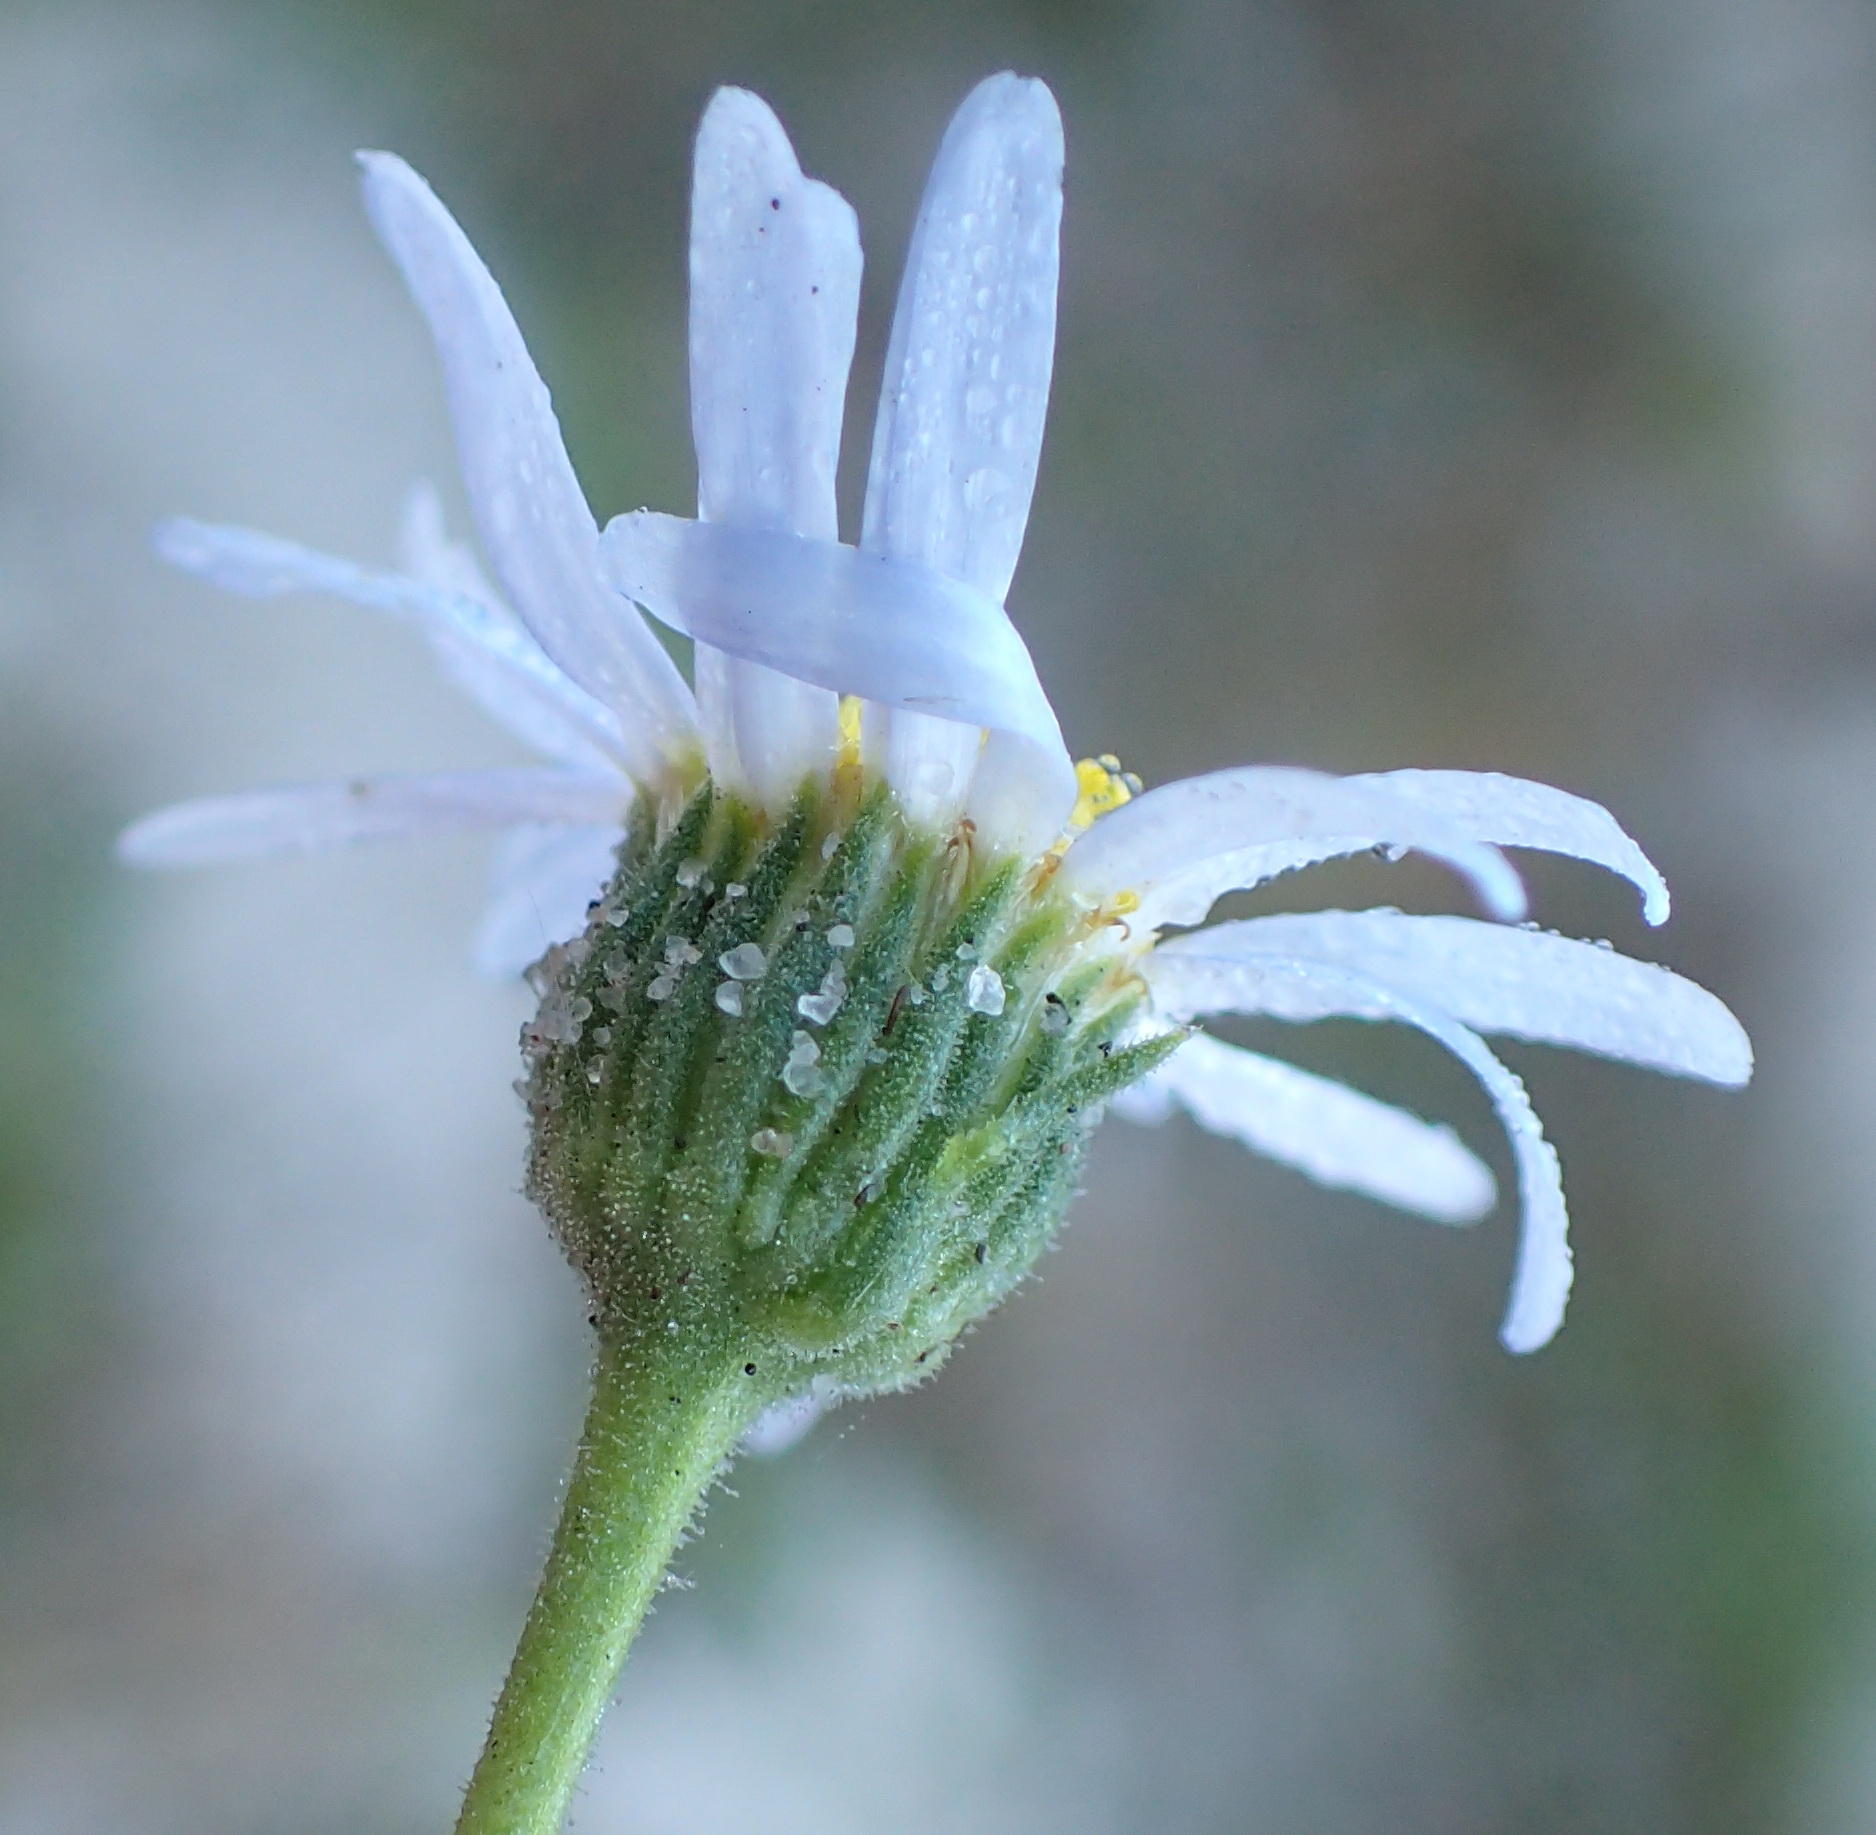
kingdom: Plantae
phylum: Tracheophyta
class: Magnoliopsida
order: Asterales
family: Asteraceae
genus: Felicia
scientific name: Felicia amoena
